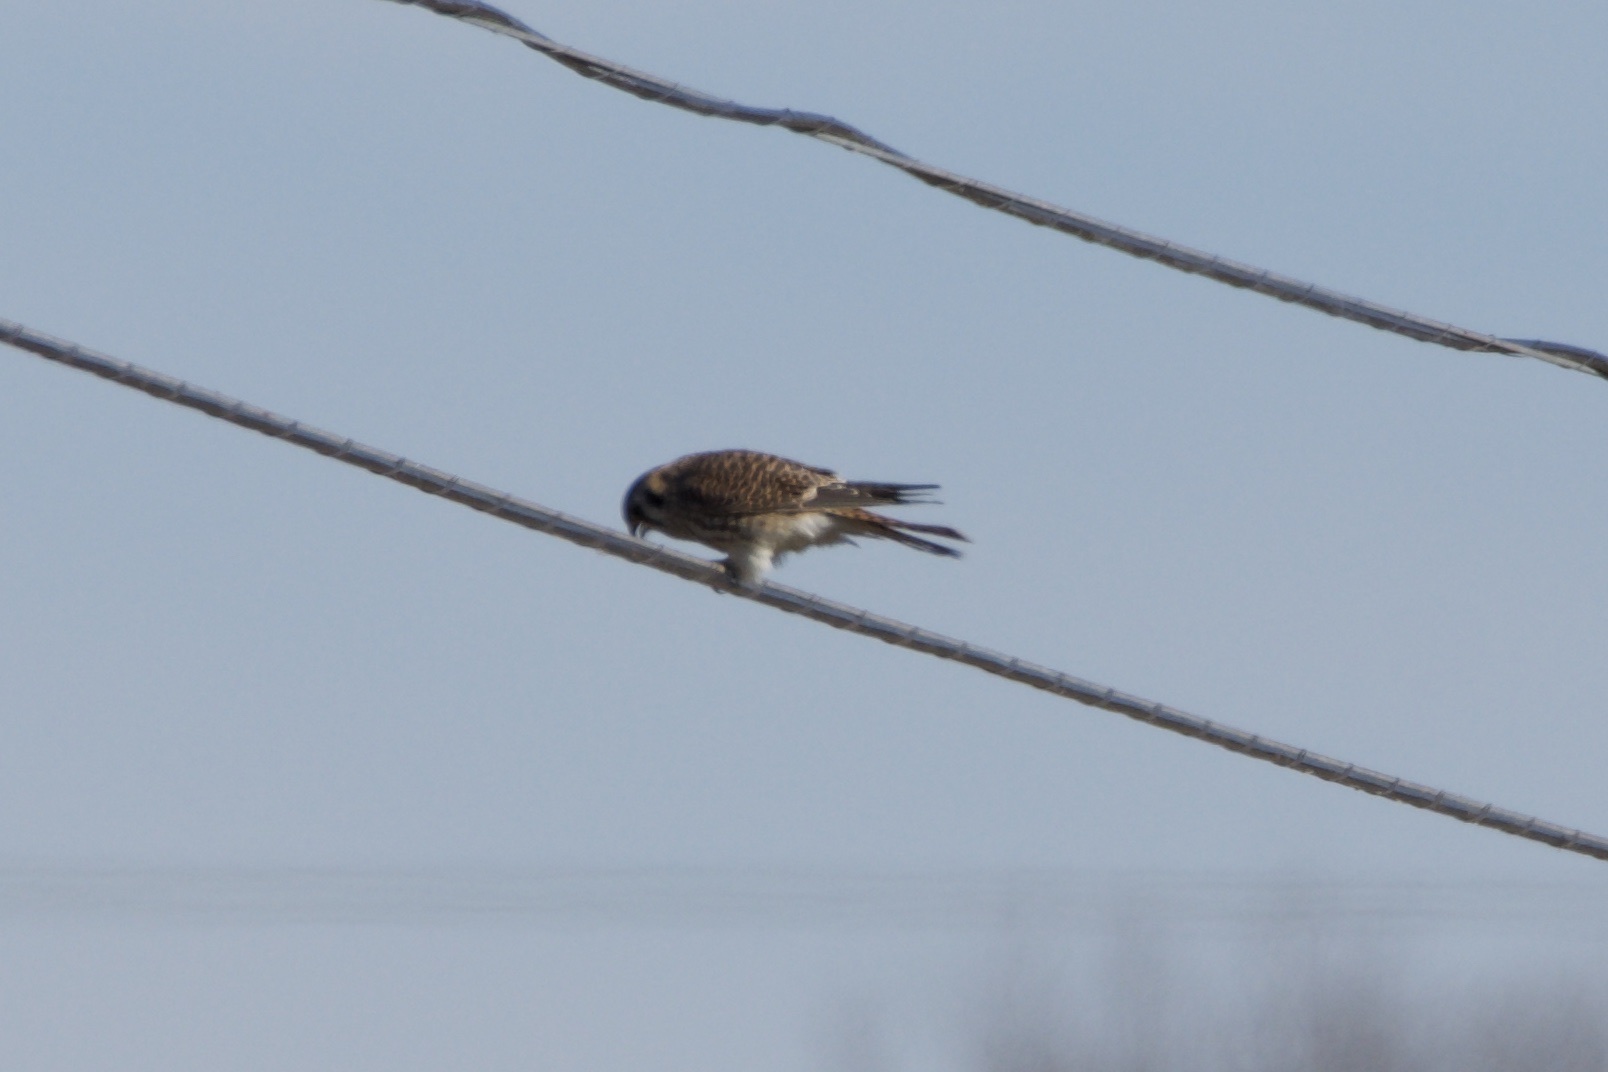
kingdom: Animalia
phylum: Chordata
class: Aves
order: Falconiformes
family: Falconidae
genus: Falco
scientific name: Falco sparverius
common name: American kestrel
